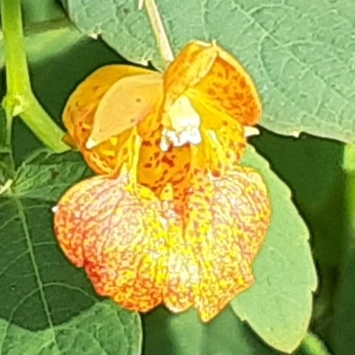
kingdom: Plantae
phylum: Tracheophyta
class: Magnoliopsida
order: Ericales
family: Balsaminaceae
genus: Impatiens
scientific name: Impatiens capensis
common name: Orange balsam
